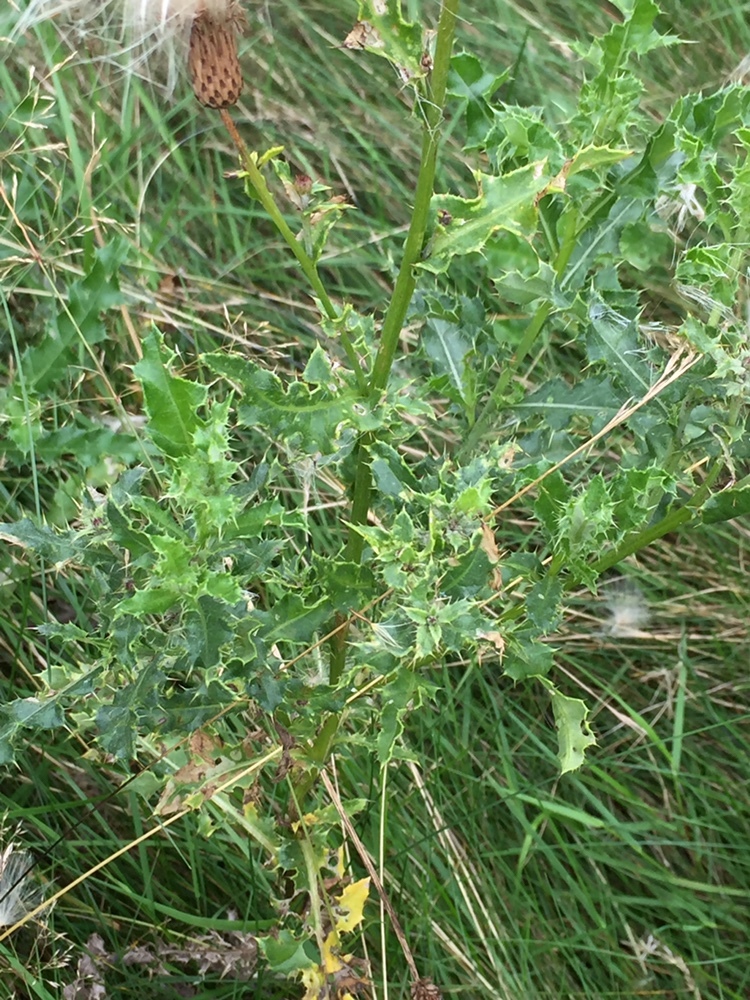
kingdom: Plantae
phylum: Tracheophyta
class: Magnoliopsida
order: Asterales
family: Asteraceae
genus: Cirsium
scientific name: Cirsium arvense
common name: Creeping thistle
